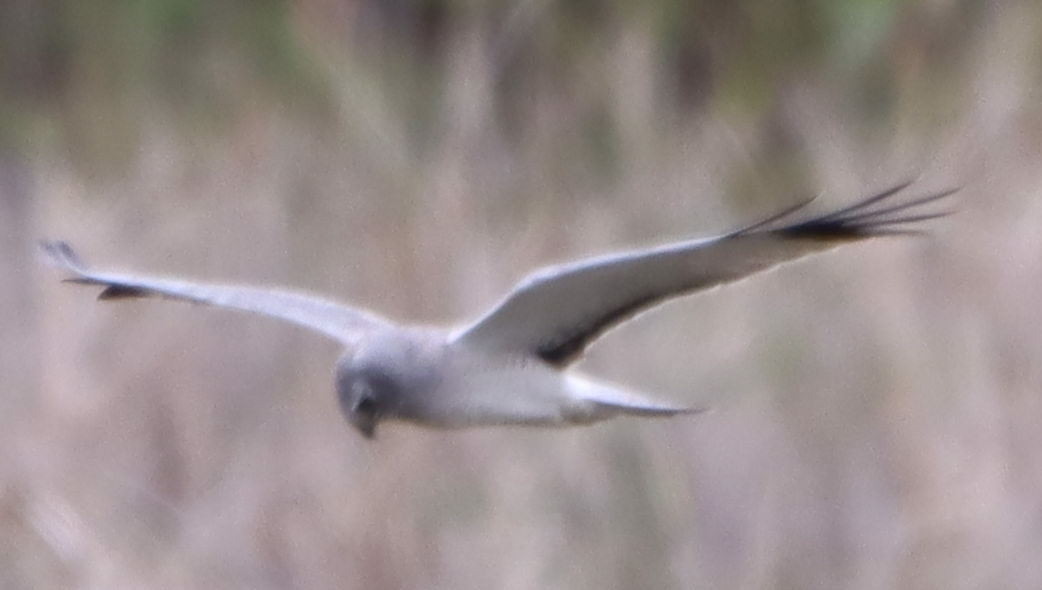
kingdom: Animalia
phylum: Chordata
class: Aves
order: Accipitriformes
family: Accipitridae
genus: Circus
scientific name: Circus cyaneus
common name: Hen harrier
